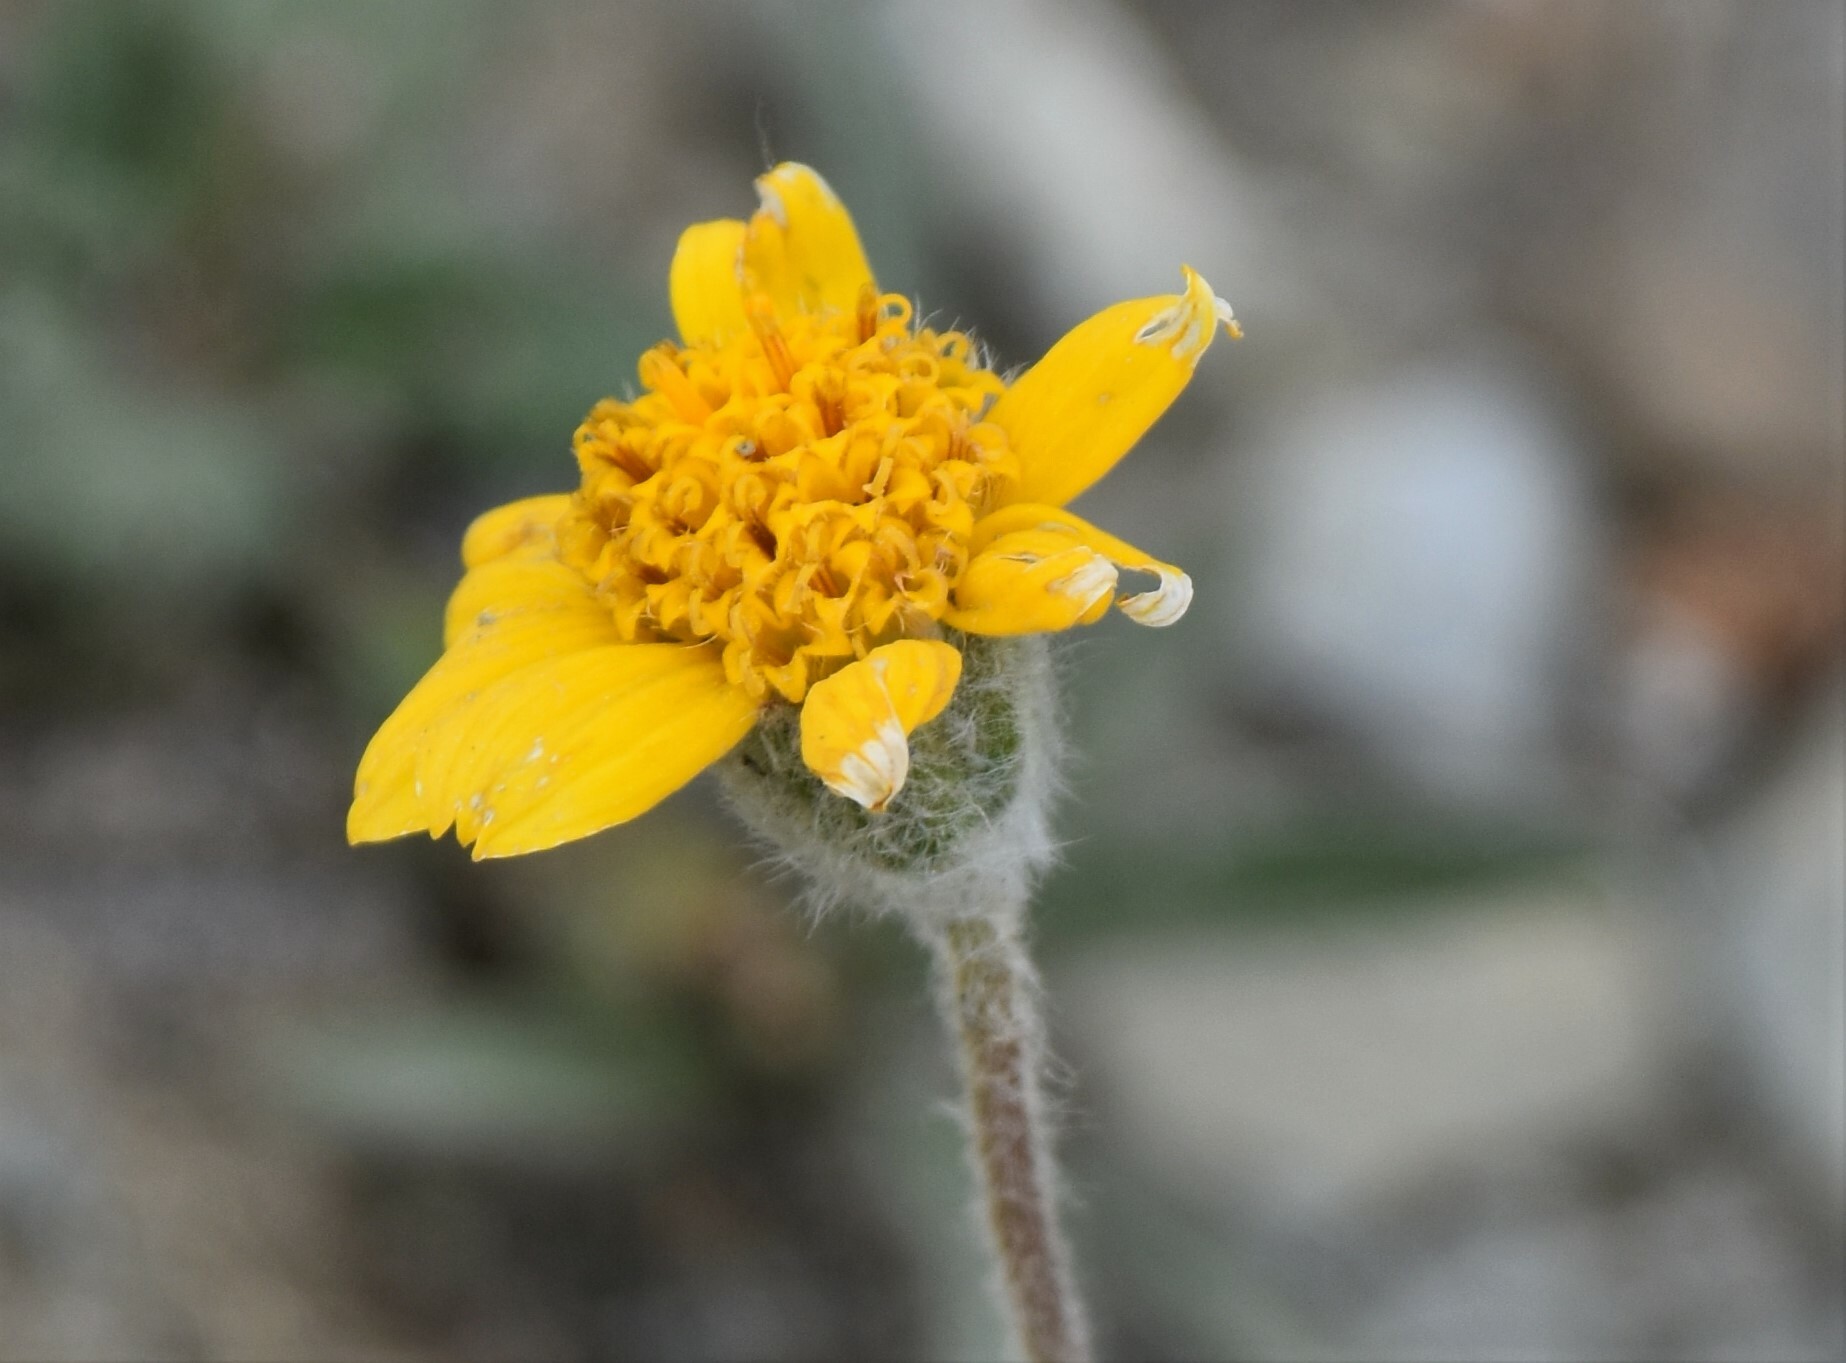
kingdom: Plantae
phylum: Tracheophyta
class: Magnoliopsida
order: Asterales
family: Asteraceae
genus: Arnica
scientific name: Arnica angustifolia
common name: Arctic arnica
